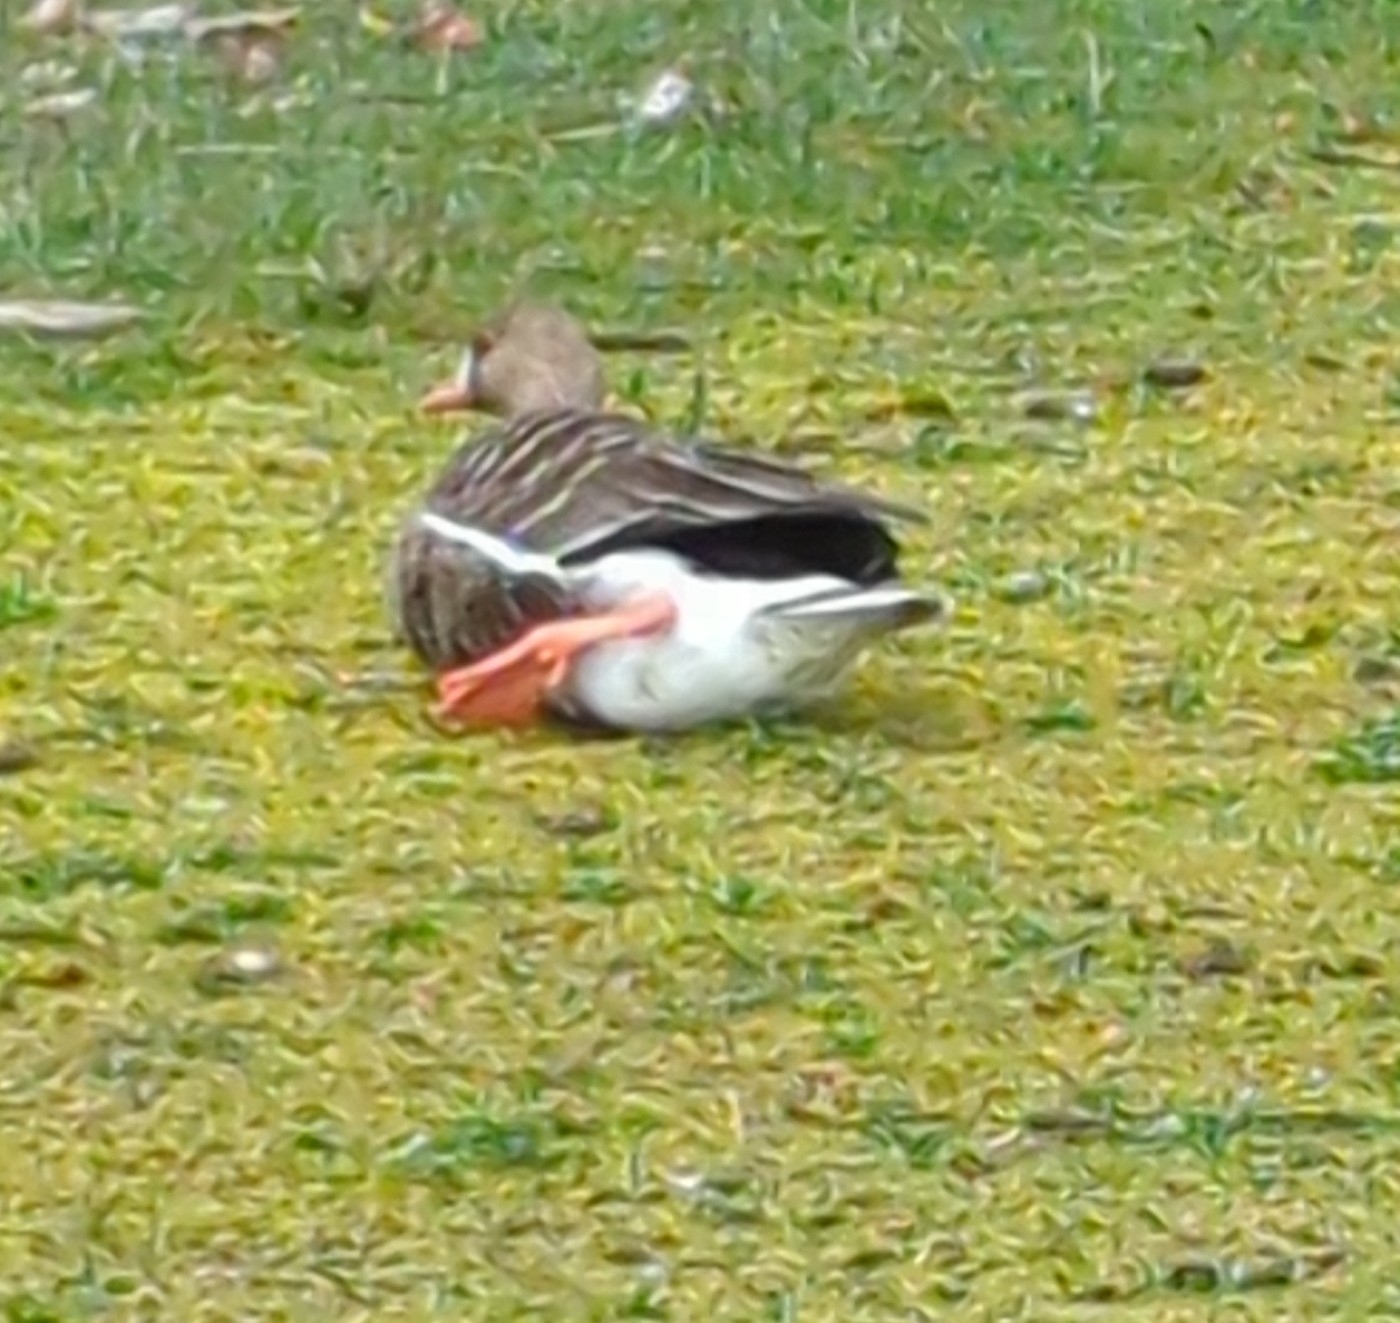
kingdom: Animalia
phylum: Chordata
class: Aves
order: Anseriformes
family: Anatidae
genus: Anser
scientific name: Anser albifrons
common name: Greater white-fronted goose
